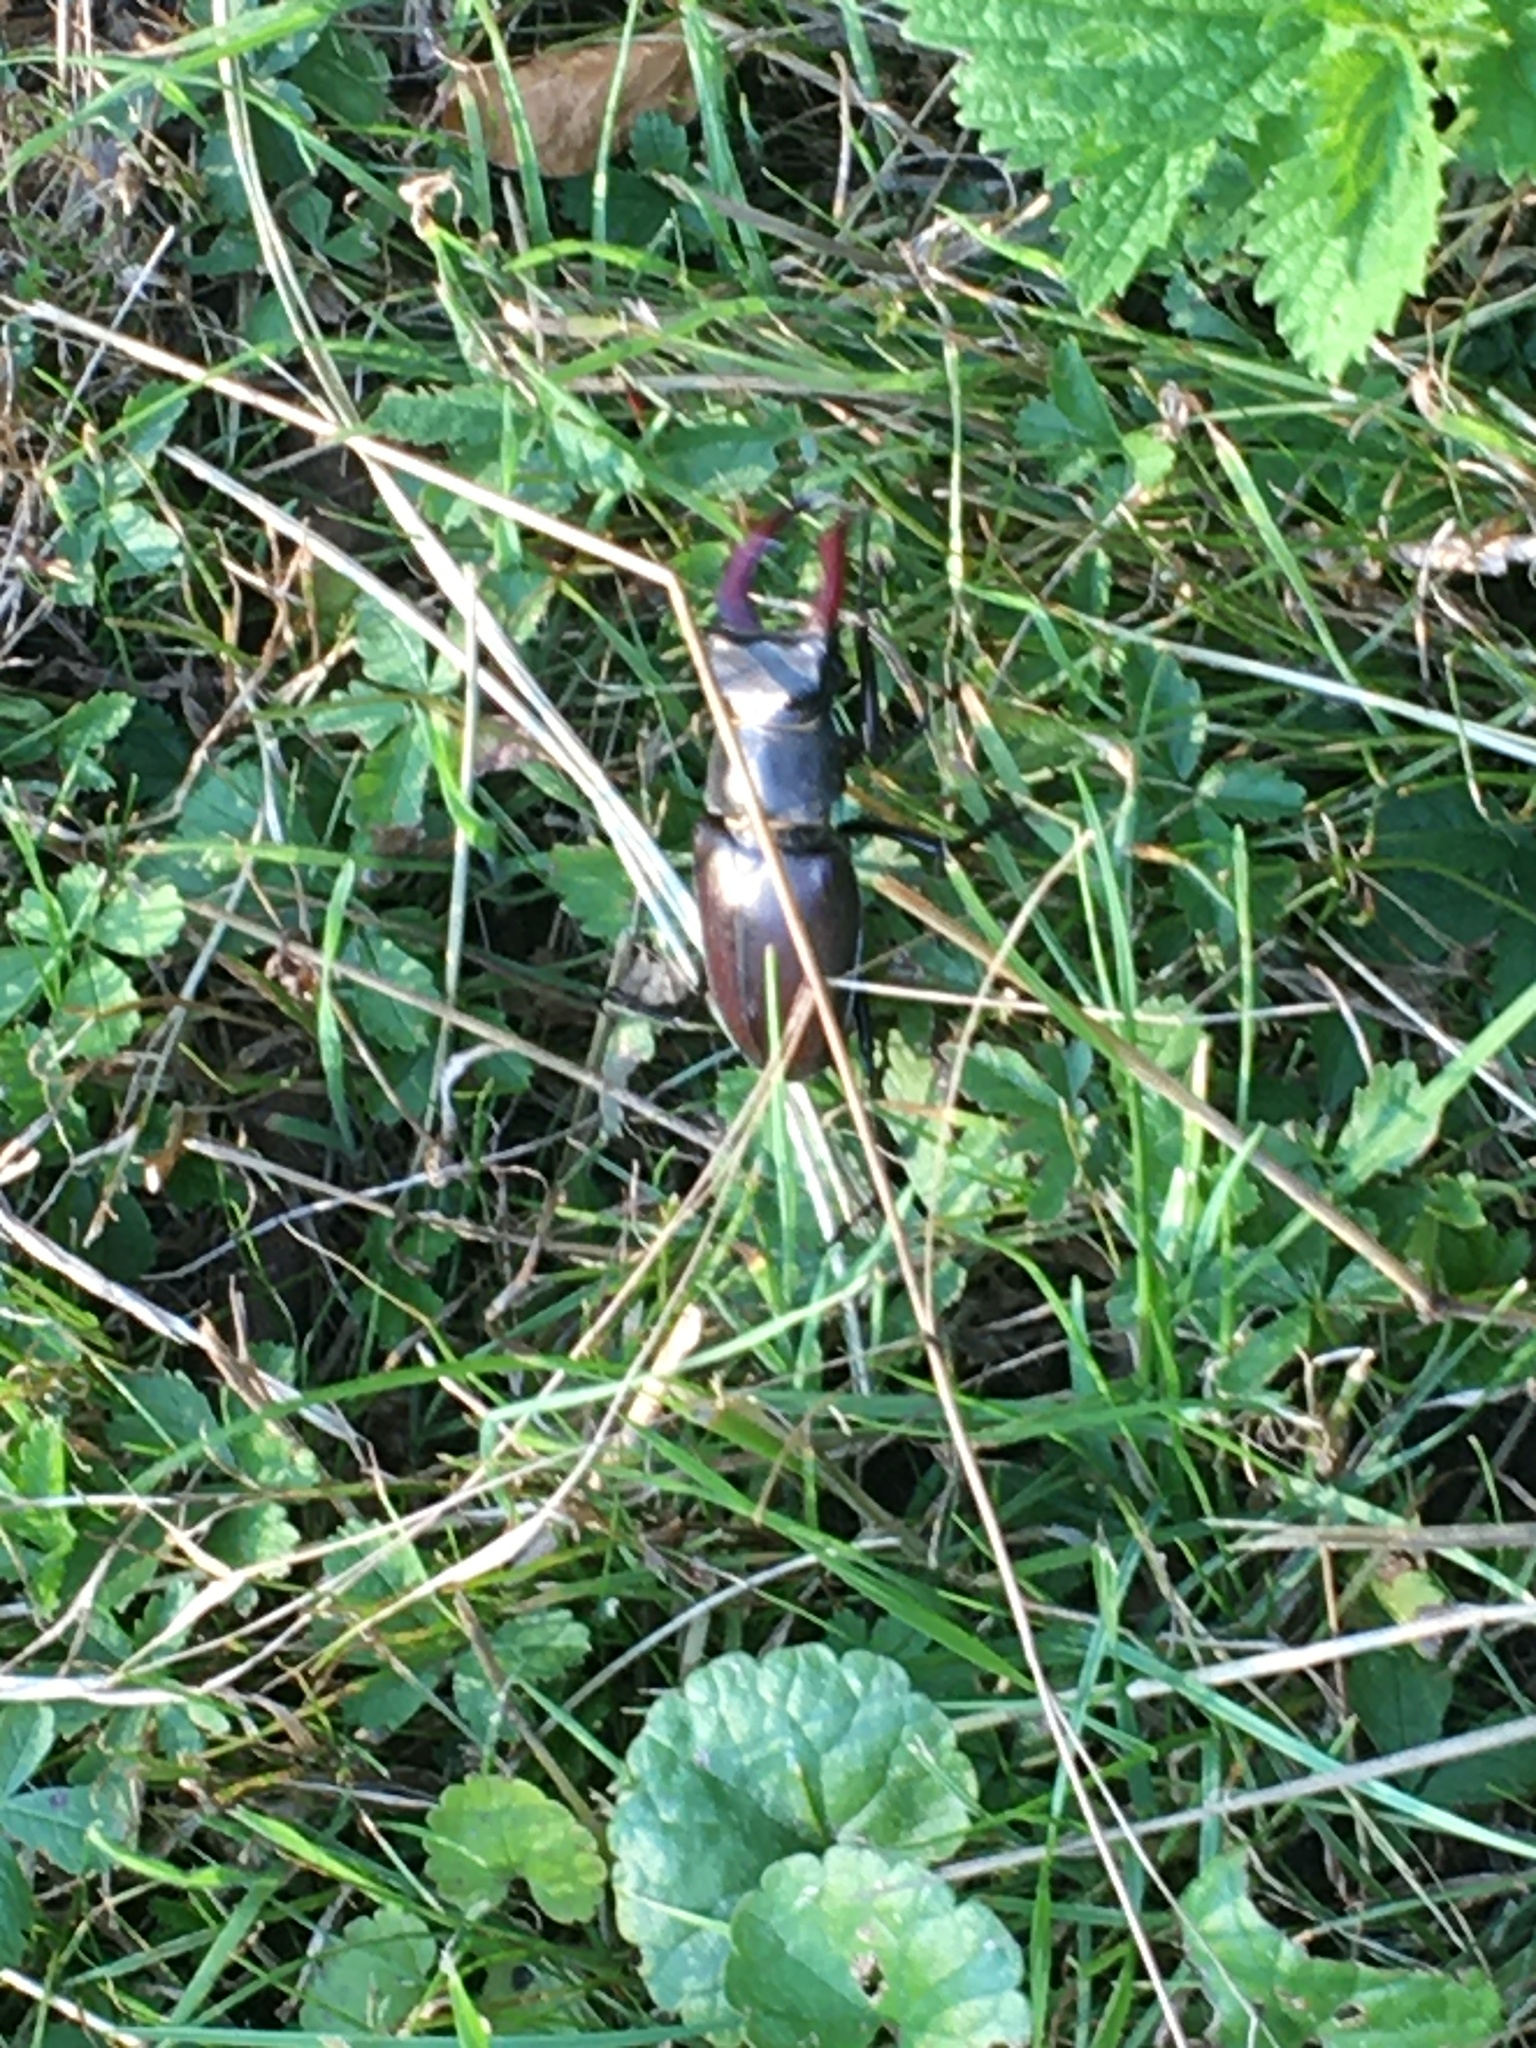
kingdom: Animalia
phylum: Arthropoda
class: Insecta
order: Coleoptera
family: Lucanidae
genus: Lucanus
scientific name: Lucanus cervus
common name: Stag beetle
